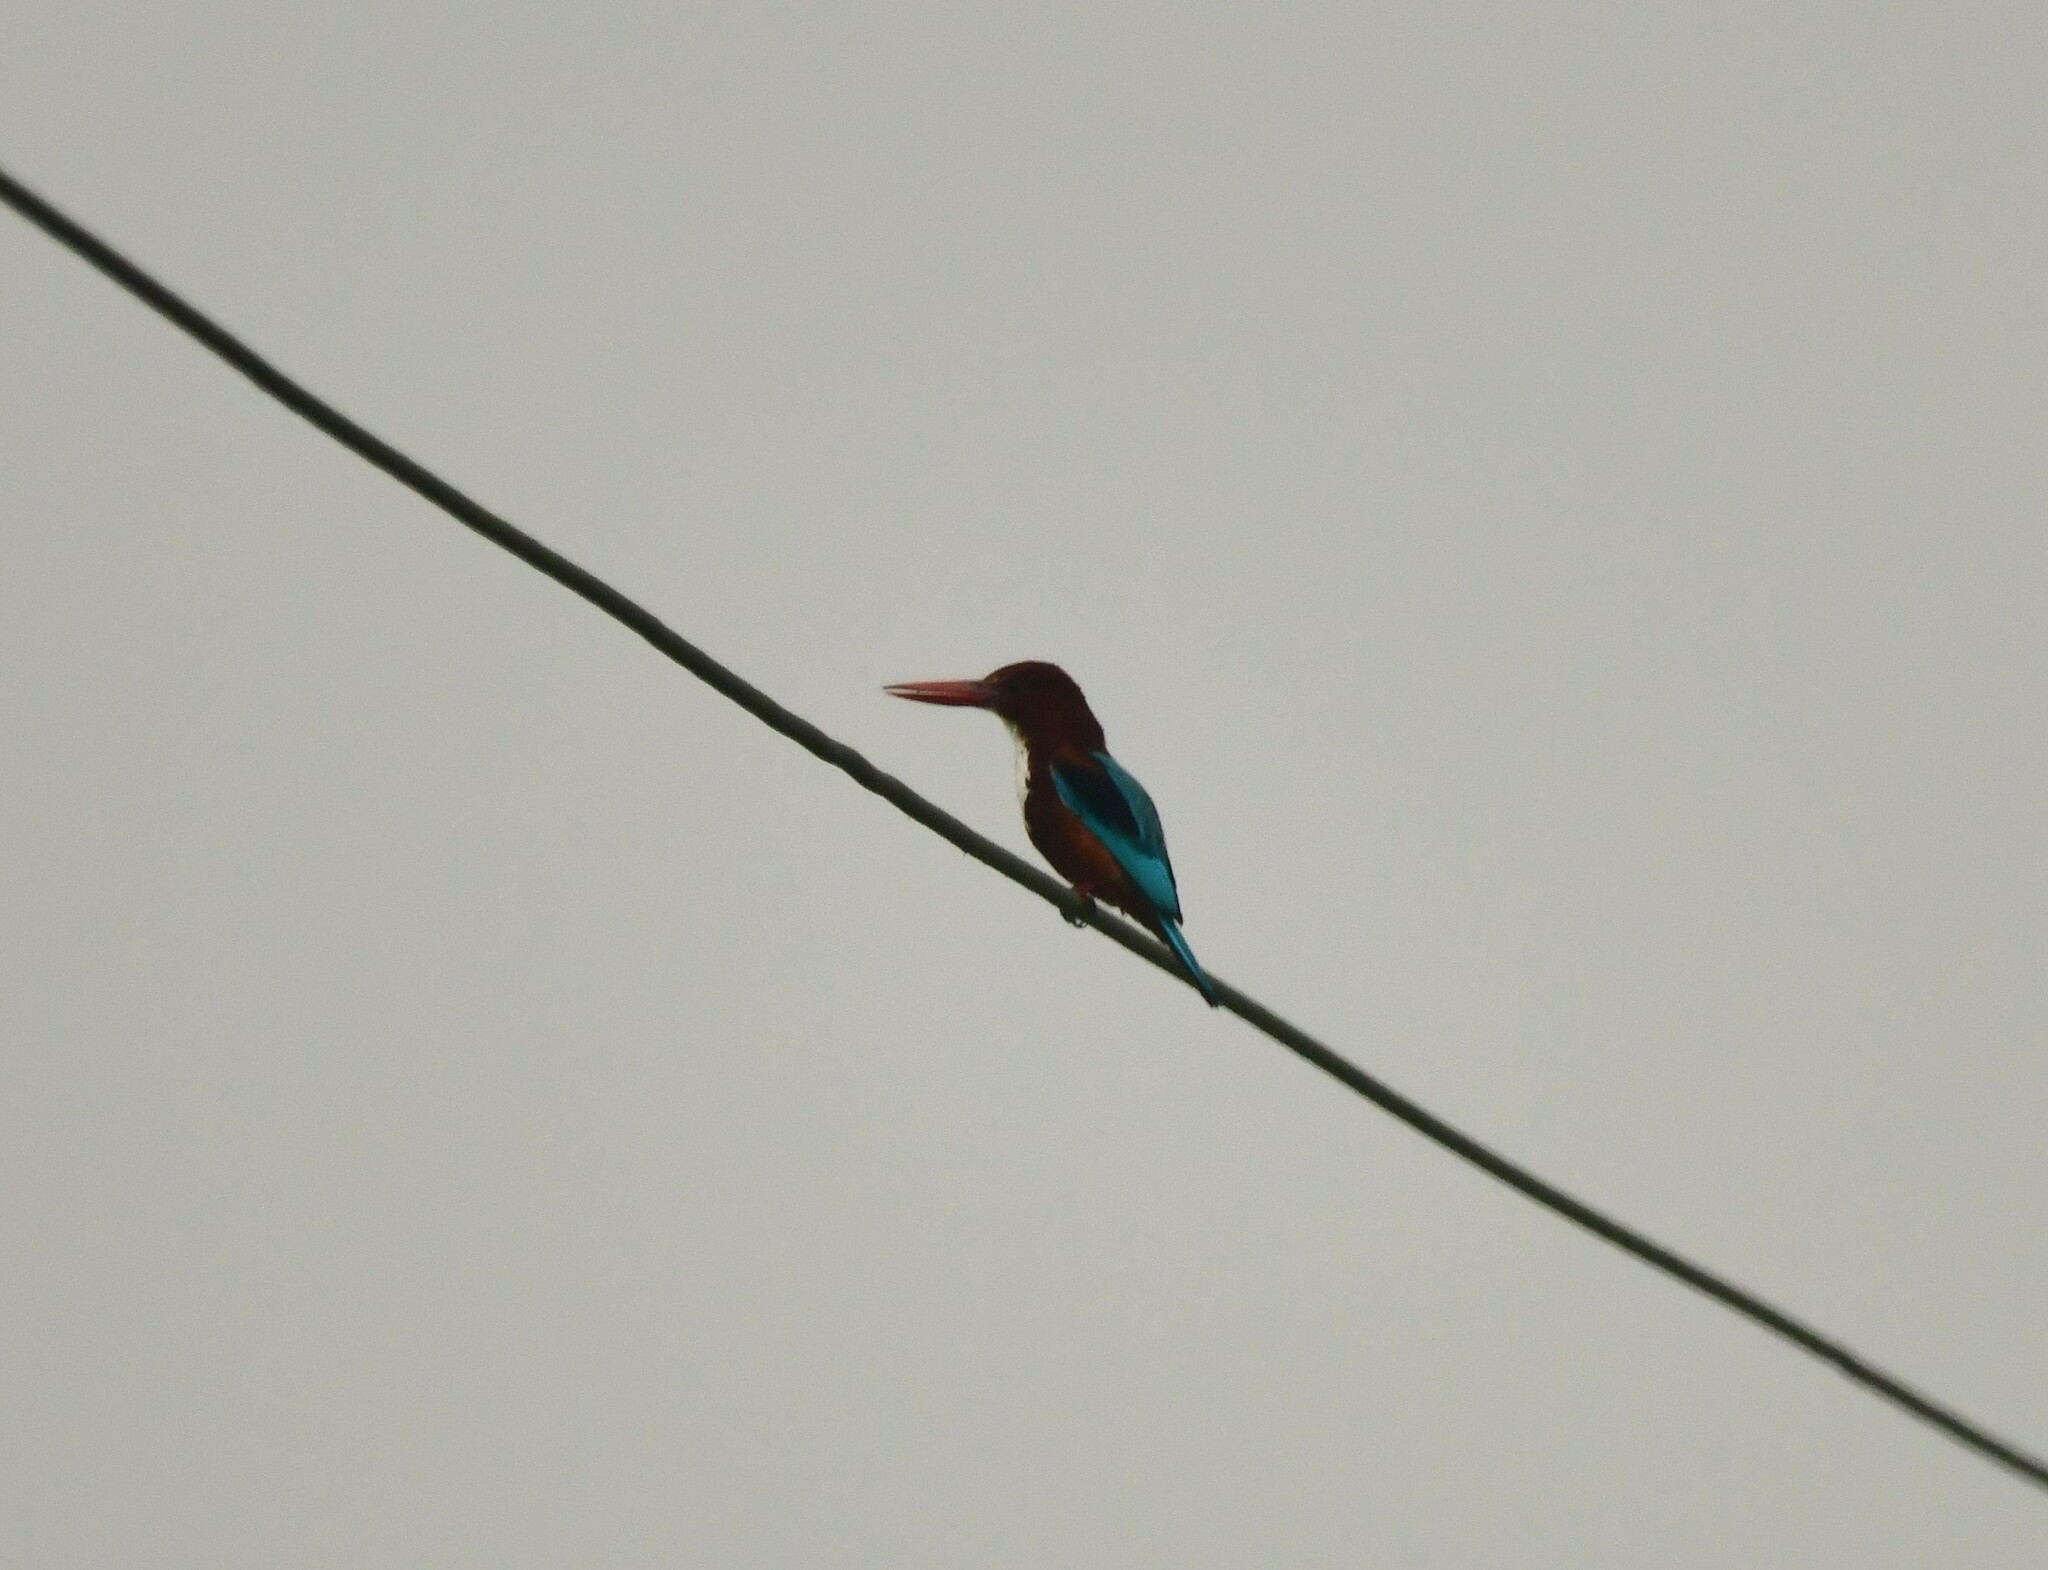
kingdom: Animalia
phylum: Chordata
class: Aves
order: Coraciiformes
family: Alcedinidae
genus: Halcyon
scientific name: Halcyon smyrnensis
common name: White-throated kingfisher
